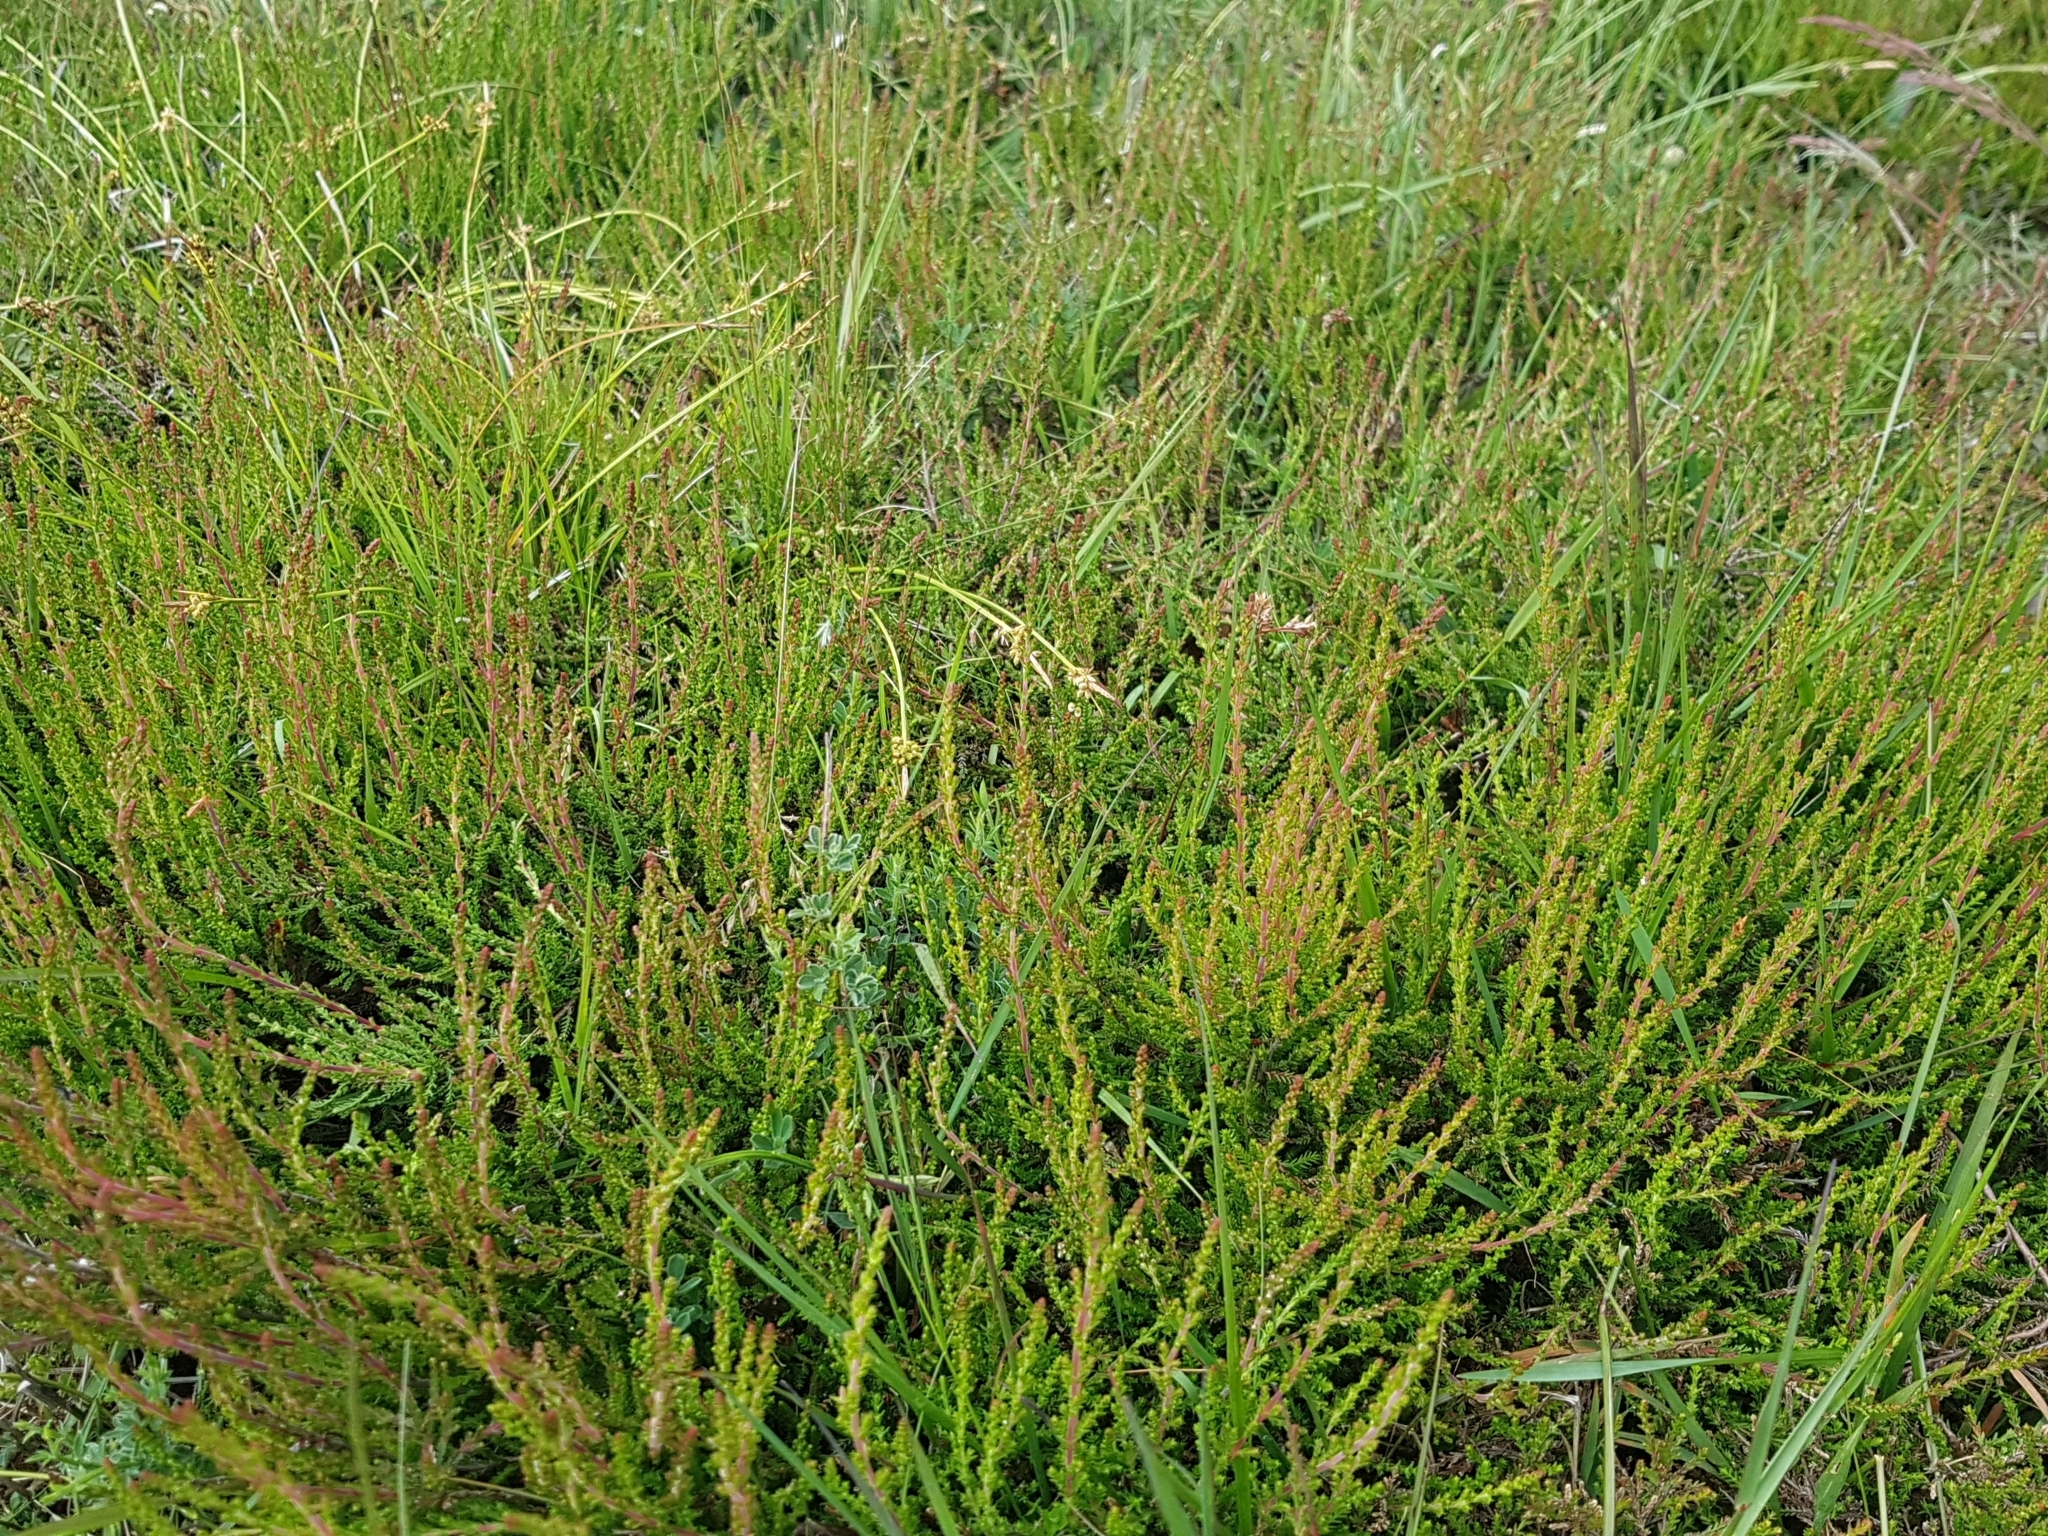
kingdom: Plantae
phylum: Tracheophyta
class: Magnoliopsida
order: Ericales
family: Ericaceae
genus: Calluna
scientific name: Calluna vulgaris
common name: Heather
